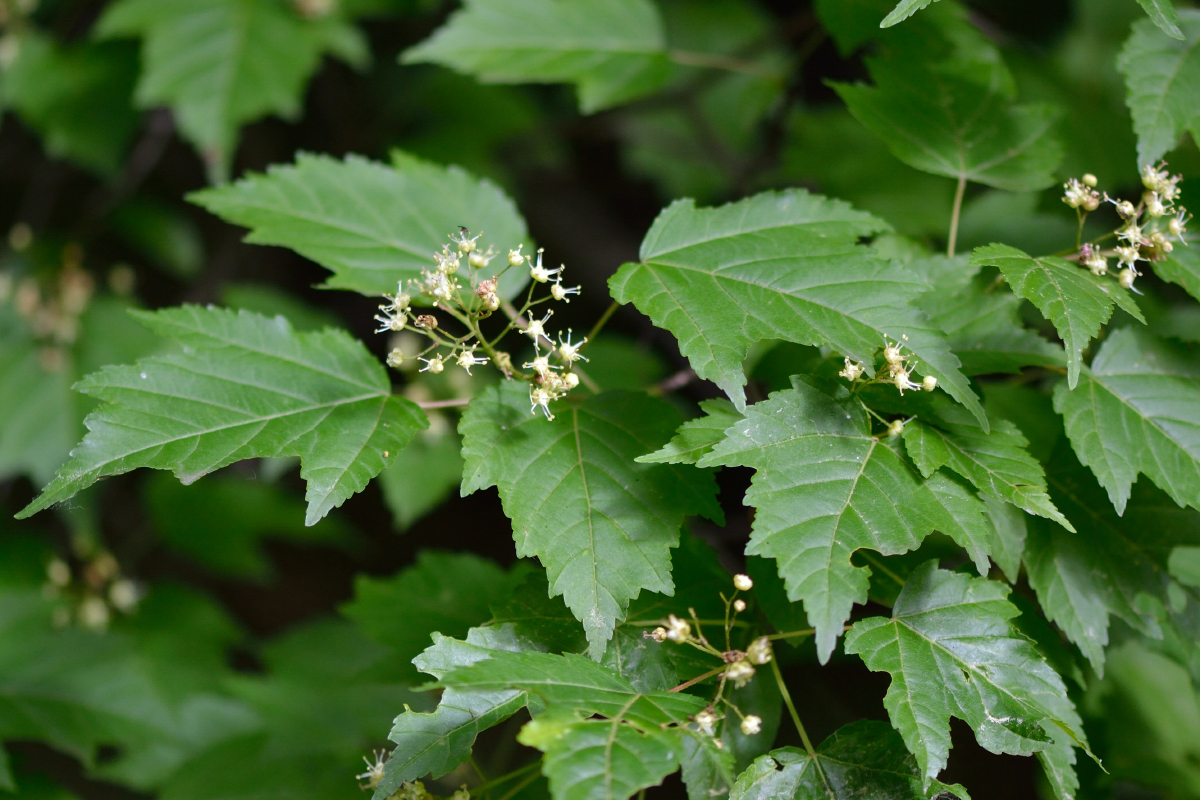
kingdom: Plantae
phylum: Tracheophyta
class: Magnoliopsida
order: Sapindales
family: Sapindaceae
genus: Acer
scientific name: Acer tataricum
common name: Tartar maple
